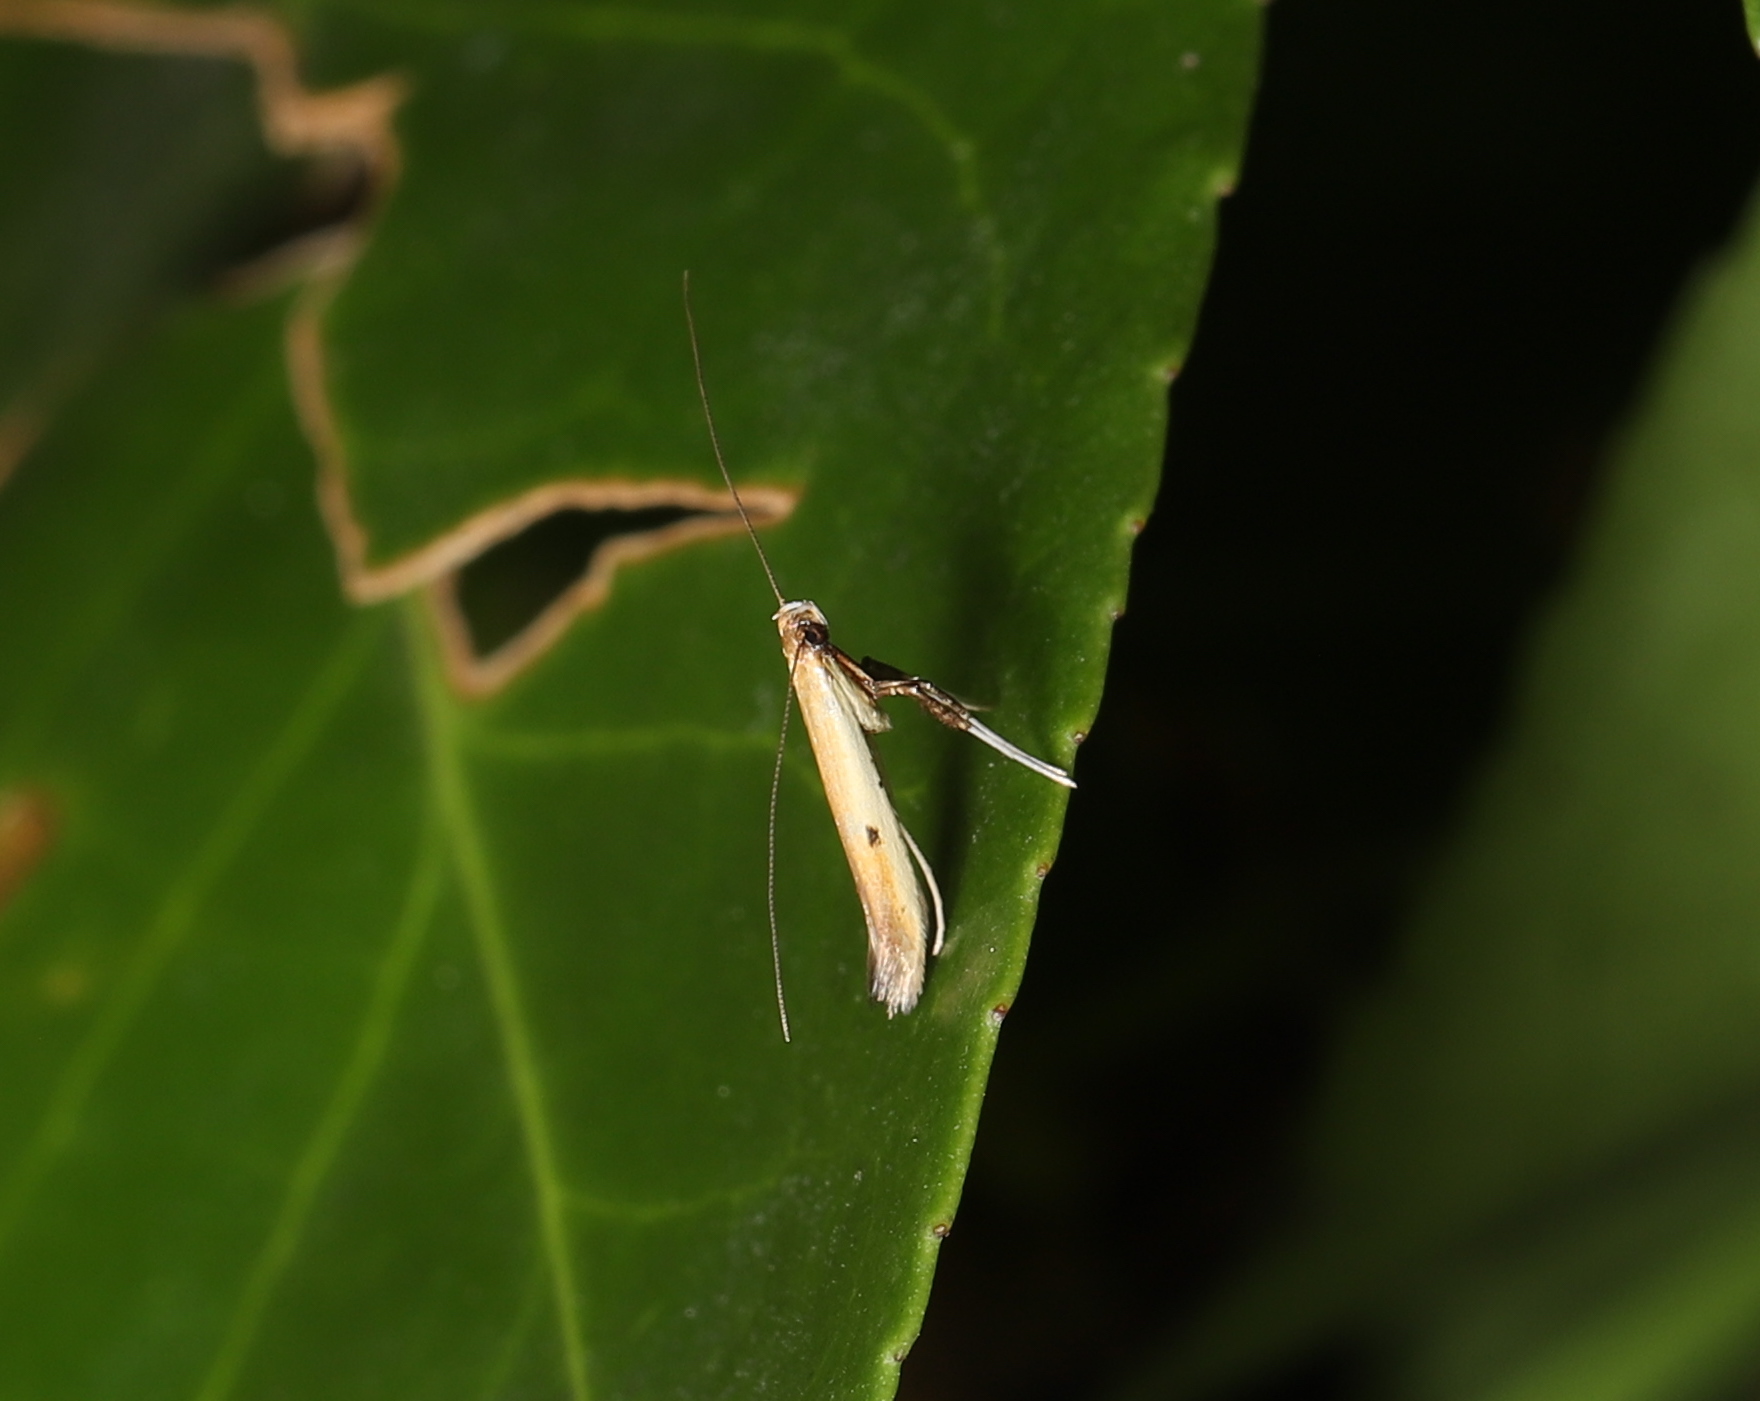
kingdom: Animalia
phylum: Arthropoda
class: Insecta
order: Lepidoptera
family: Gracillariidae
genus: Caloptilia
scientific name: Caloptilia violacella
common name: Tick-trefoil caloptilia moth
